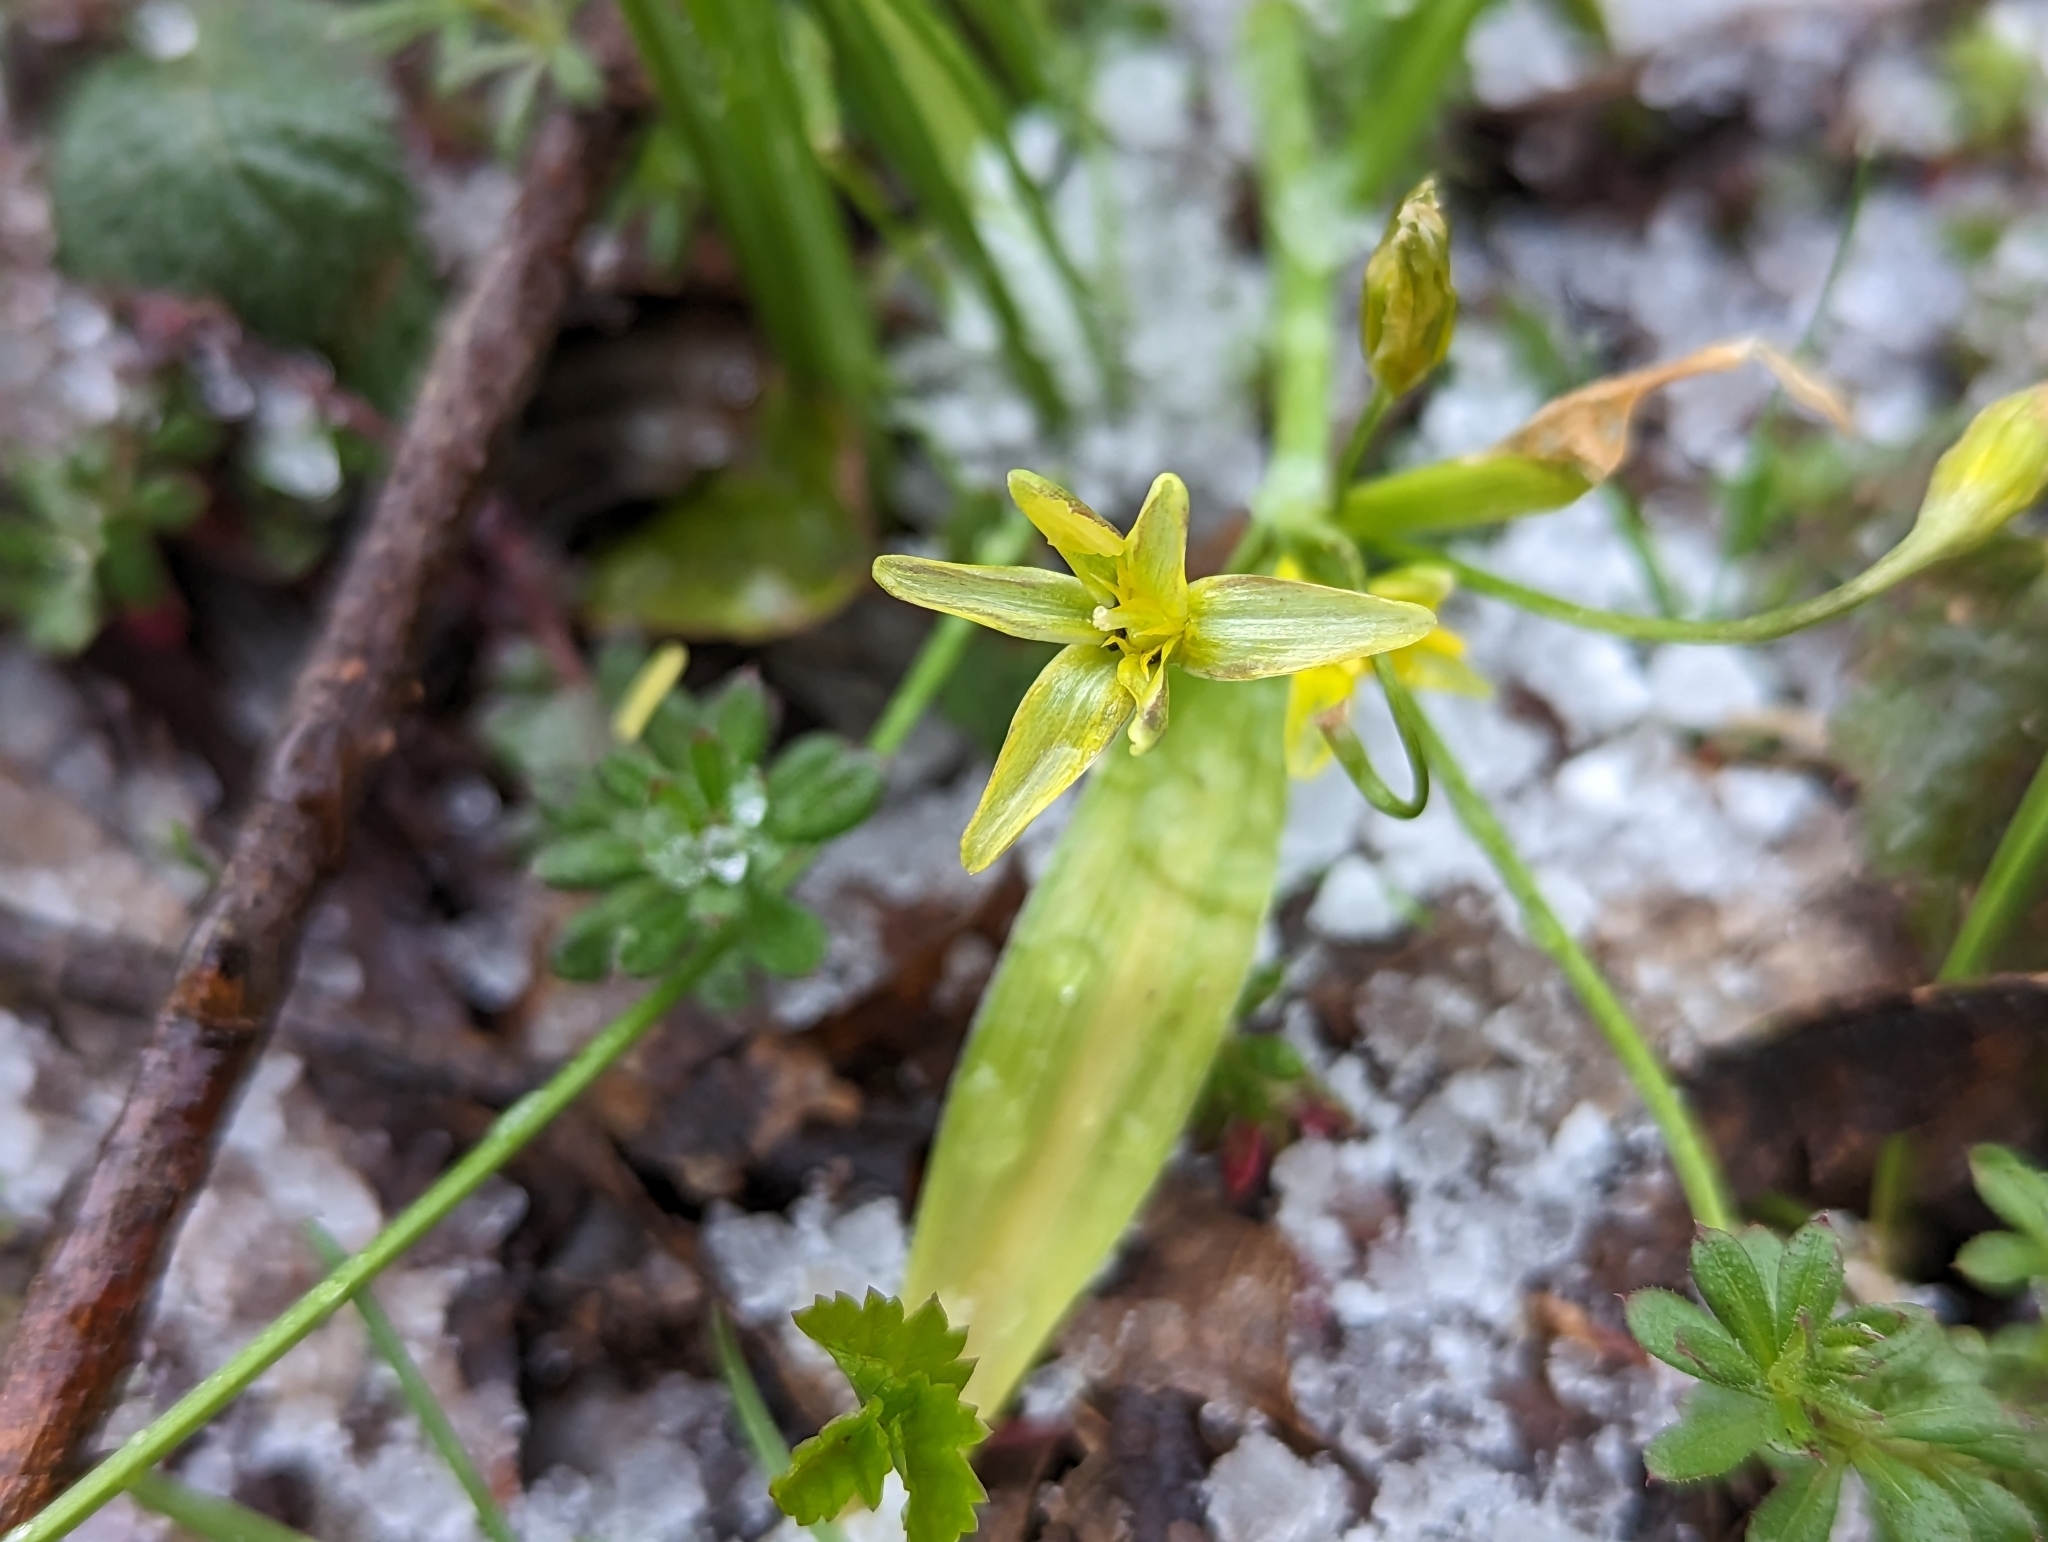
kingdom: Plantae
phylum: Tracheophyta
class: Liliopsida
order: Liliales
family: Liliaceae
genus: Gagea
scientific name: Gagea lutea
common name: Yellow star-of-bethlehem
